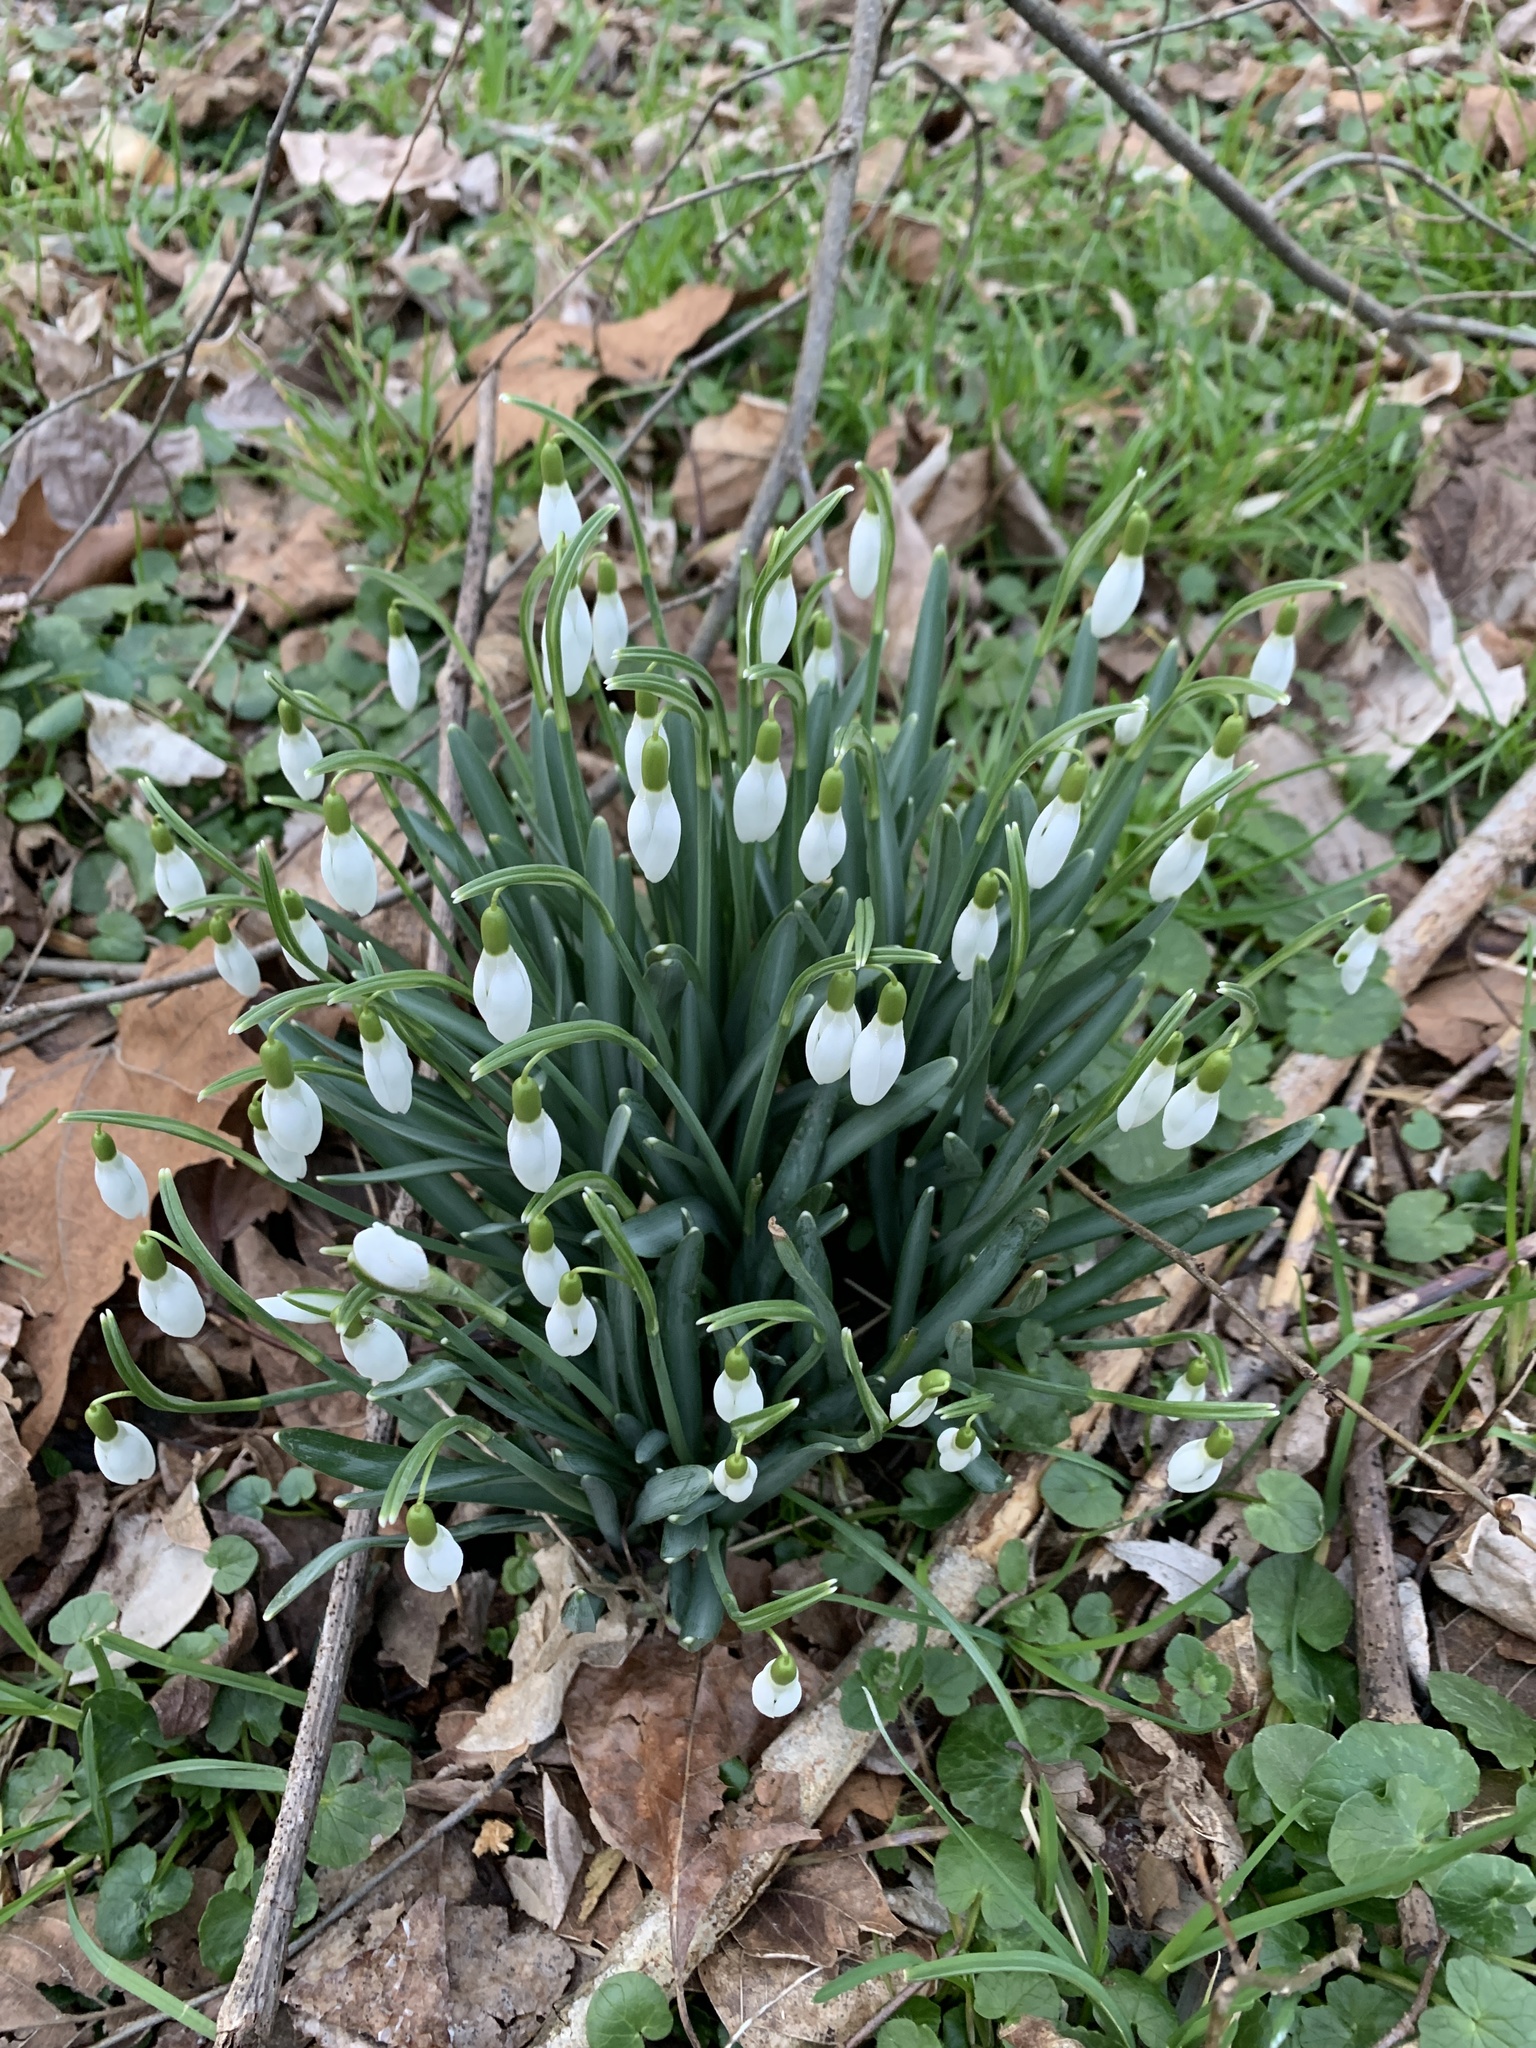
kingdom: Plantae
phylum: Tracheophyta
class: Liliopsida
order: Asparagales
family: Amaryllidaceae
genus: Galanthus
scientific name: Galanthus nivalis
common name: Snowdrop
